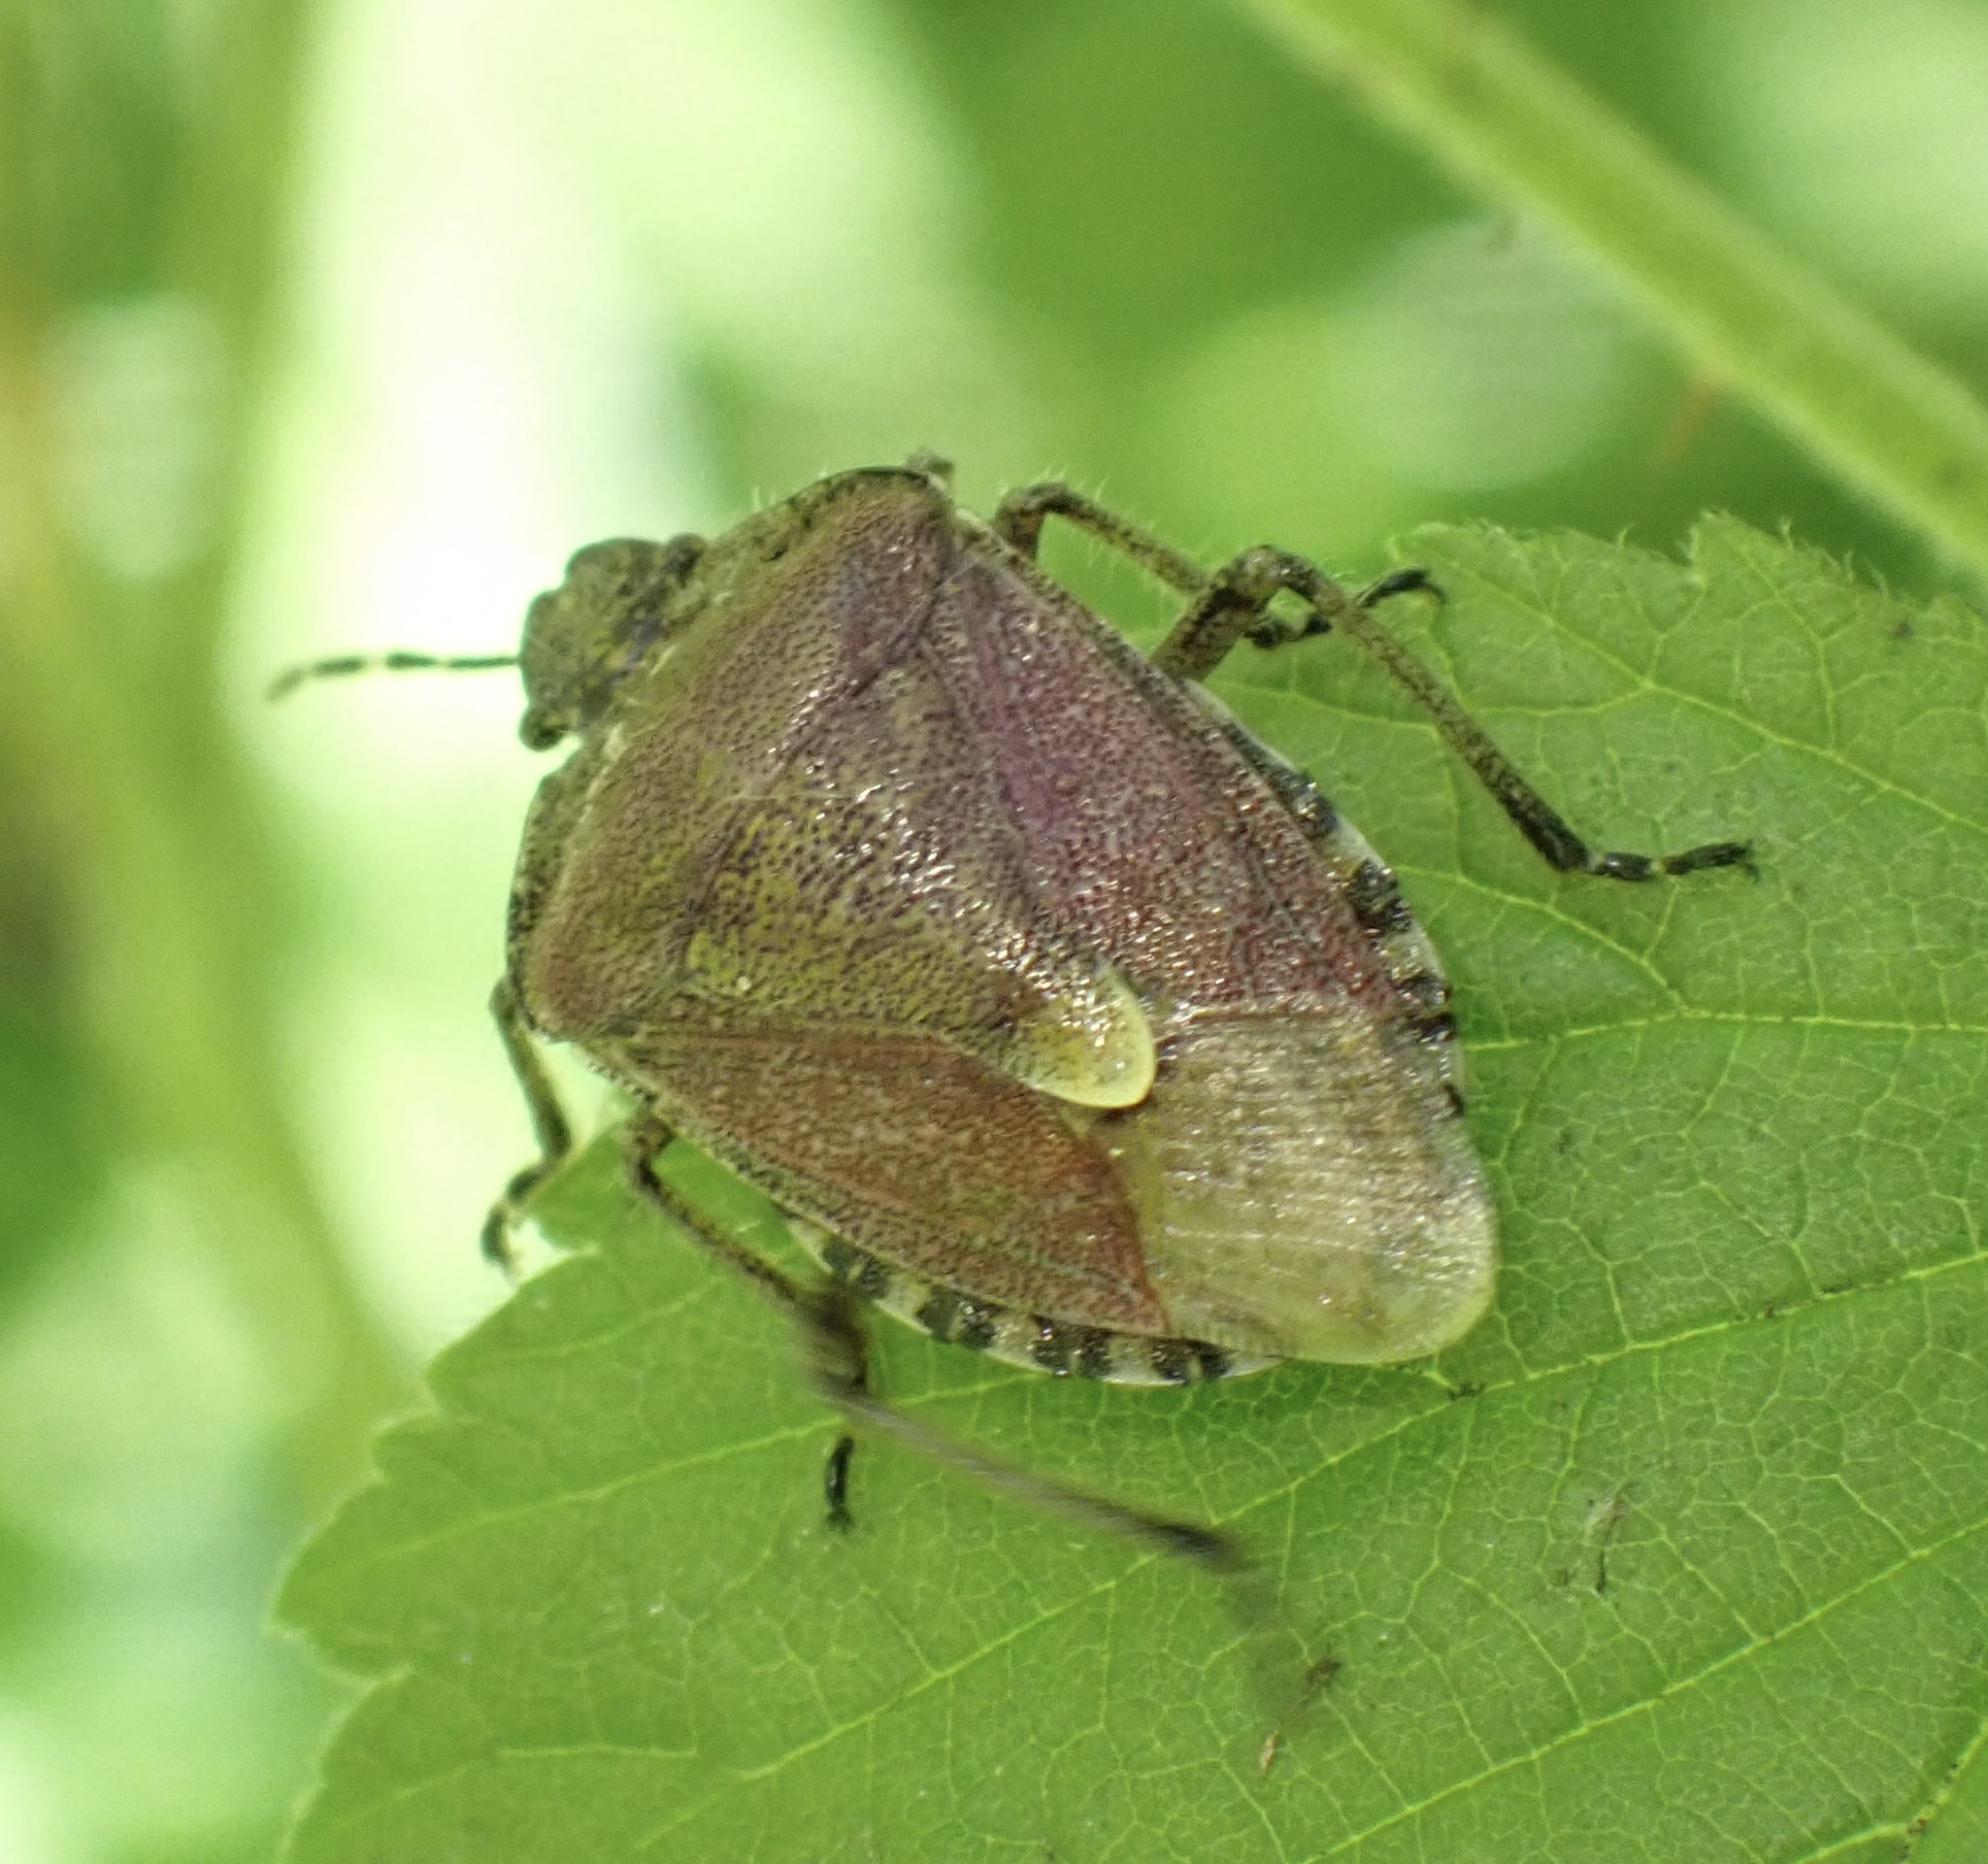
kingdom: Animalia
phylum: Arthropoda
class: Insecta
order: Hemiptera
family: Pentatomidae
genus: Dolycoris
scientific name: Dolycoris baccarum
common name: Sloe bug
